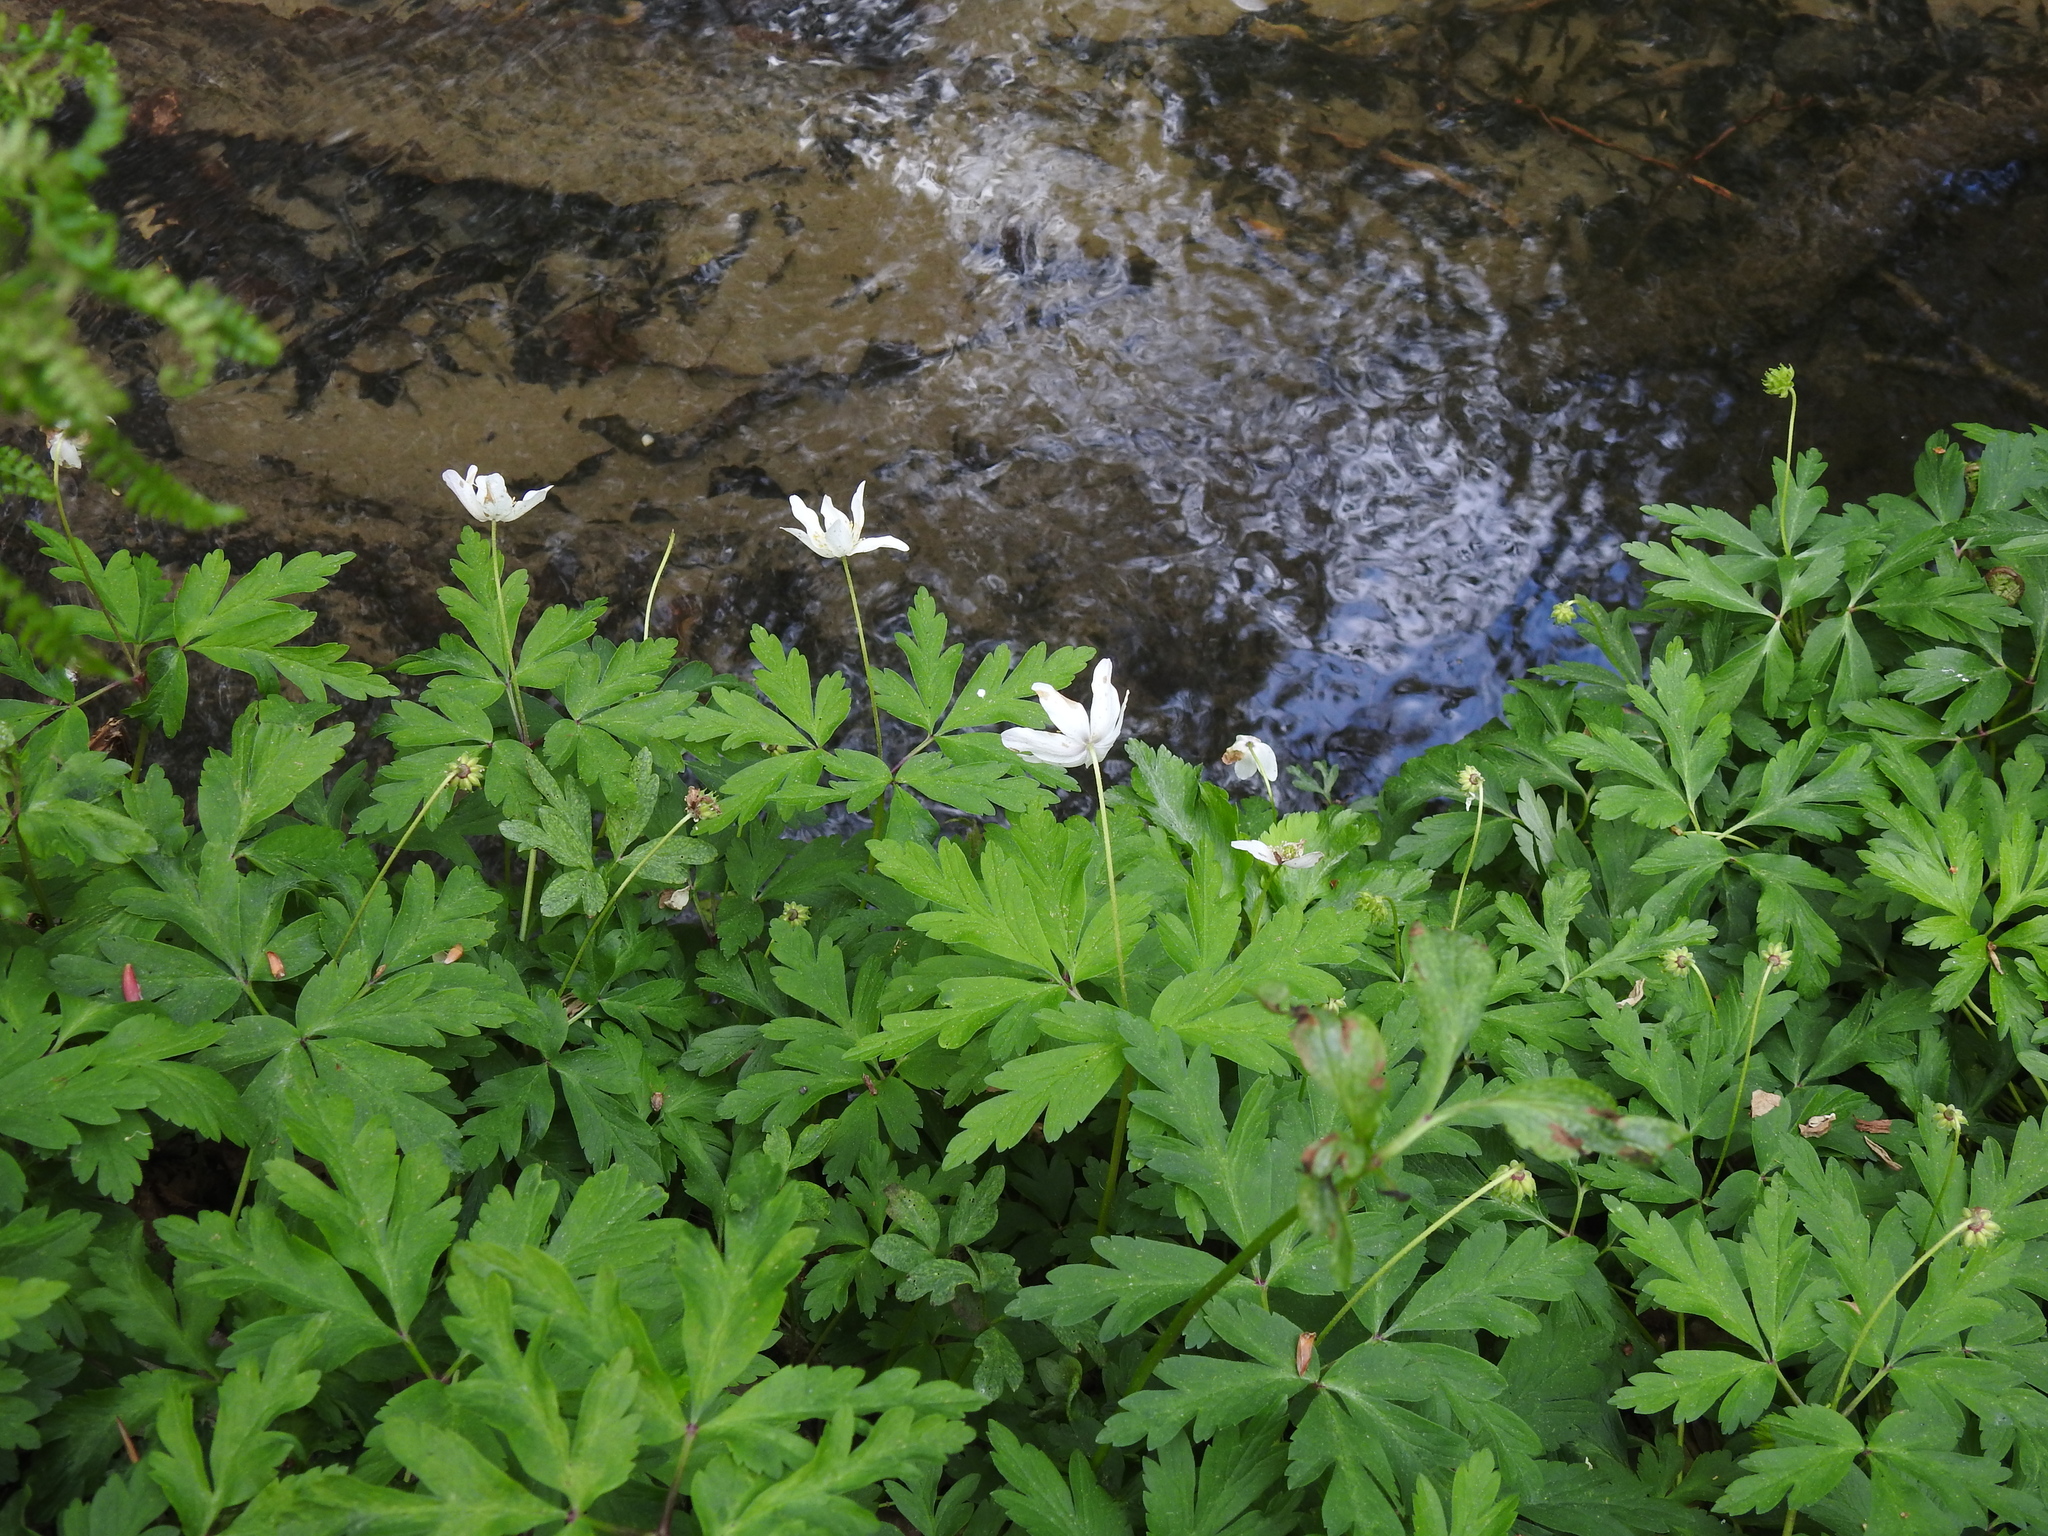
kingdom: Plantae
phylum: Tracheophyta
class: Magnoliopsida
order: Ranunculales
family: Ranunculaceae
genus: Anemone
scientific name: Anemone nemorosa
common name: Wood anemone
